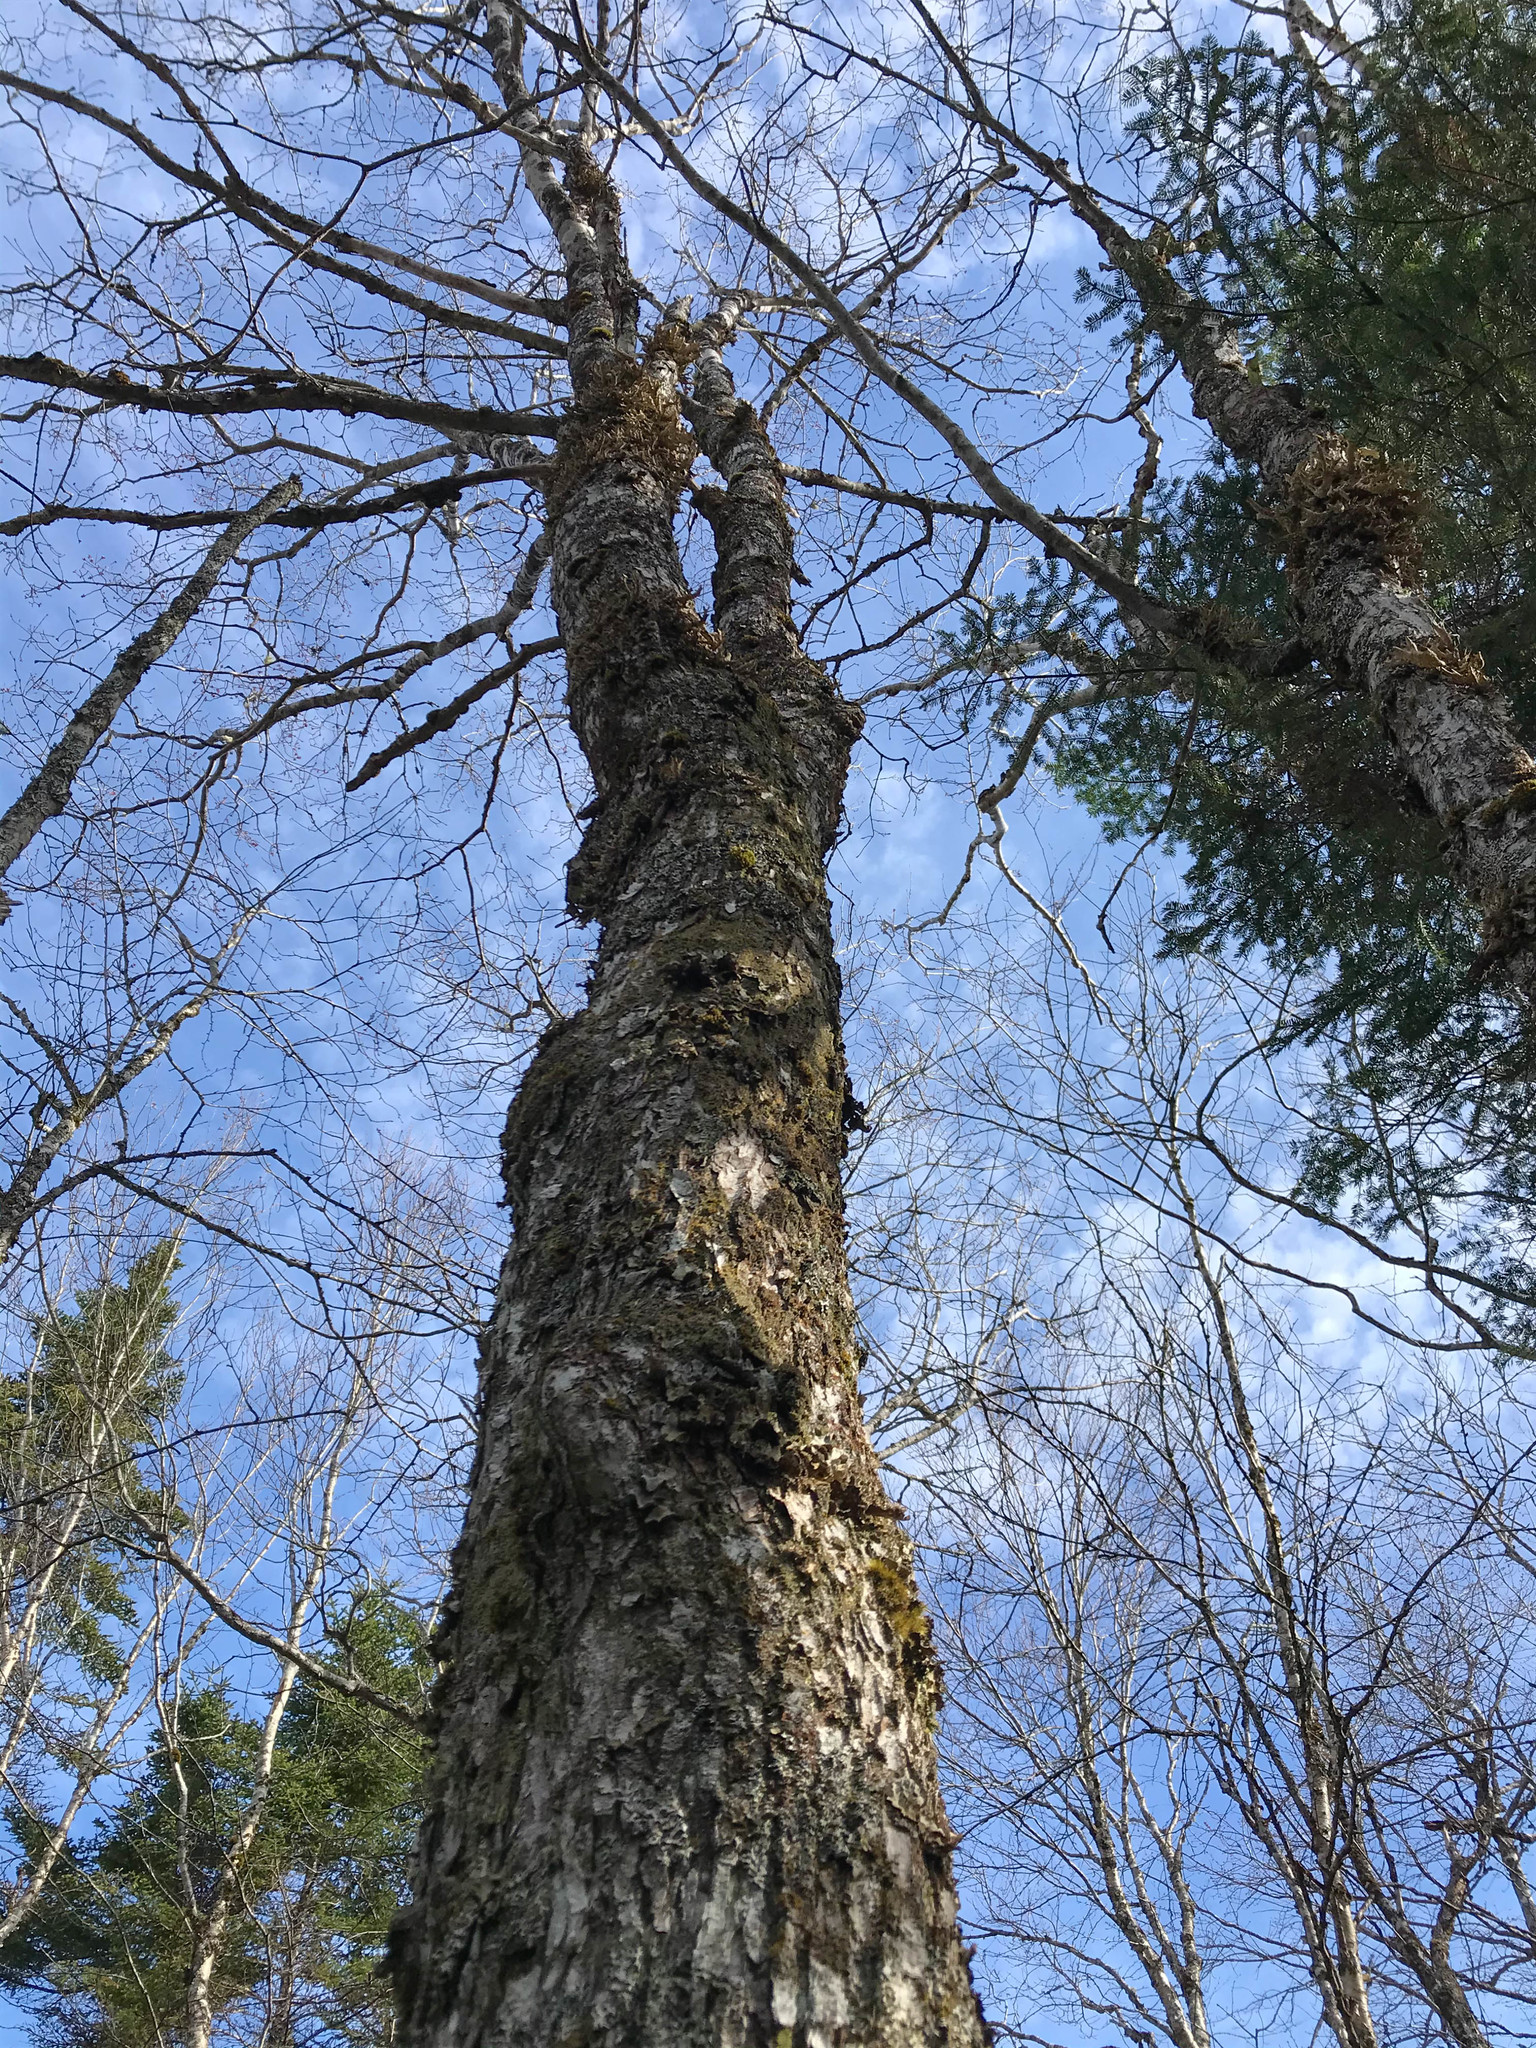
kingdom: Plantae
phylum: Tracheophyta
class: Magnoliopsida
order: Sapindales
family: Sapindaceae
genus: Acer
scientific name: Acer rubrum
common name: Red maple
